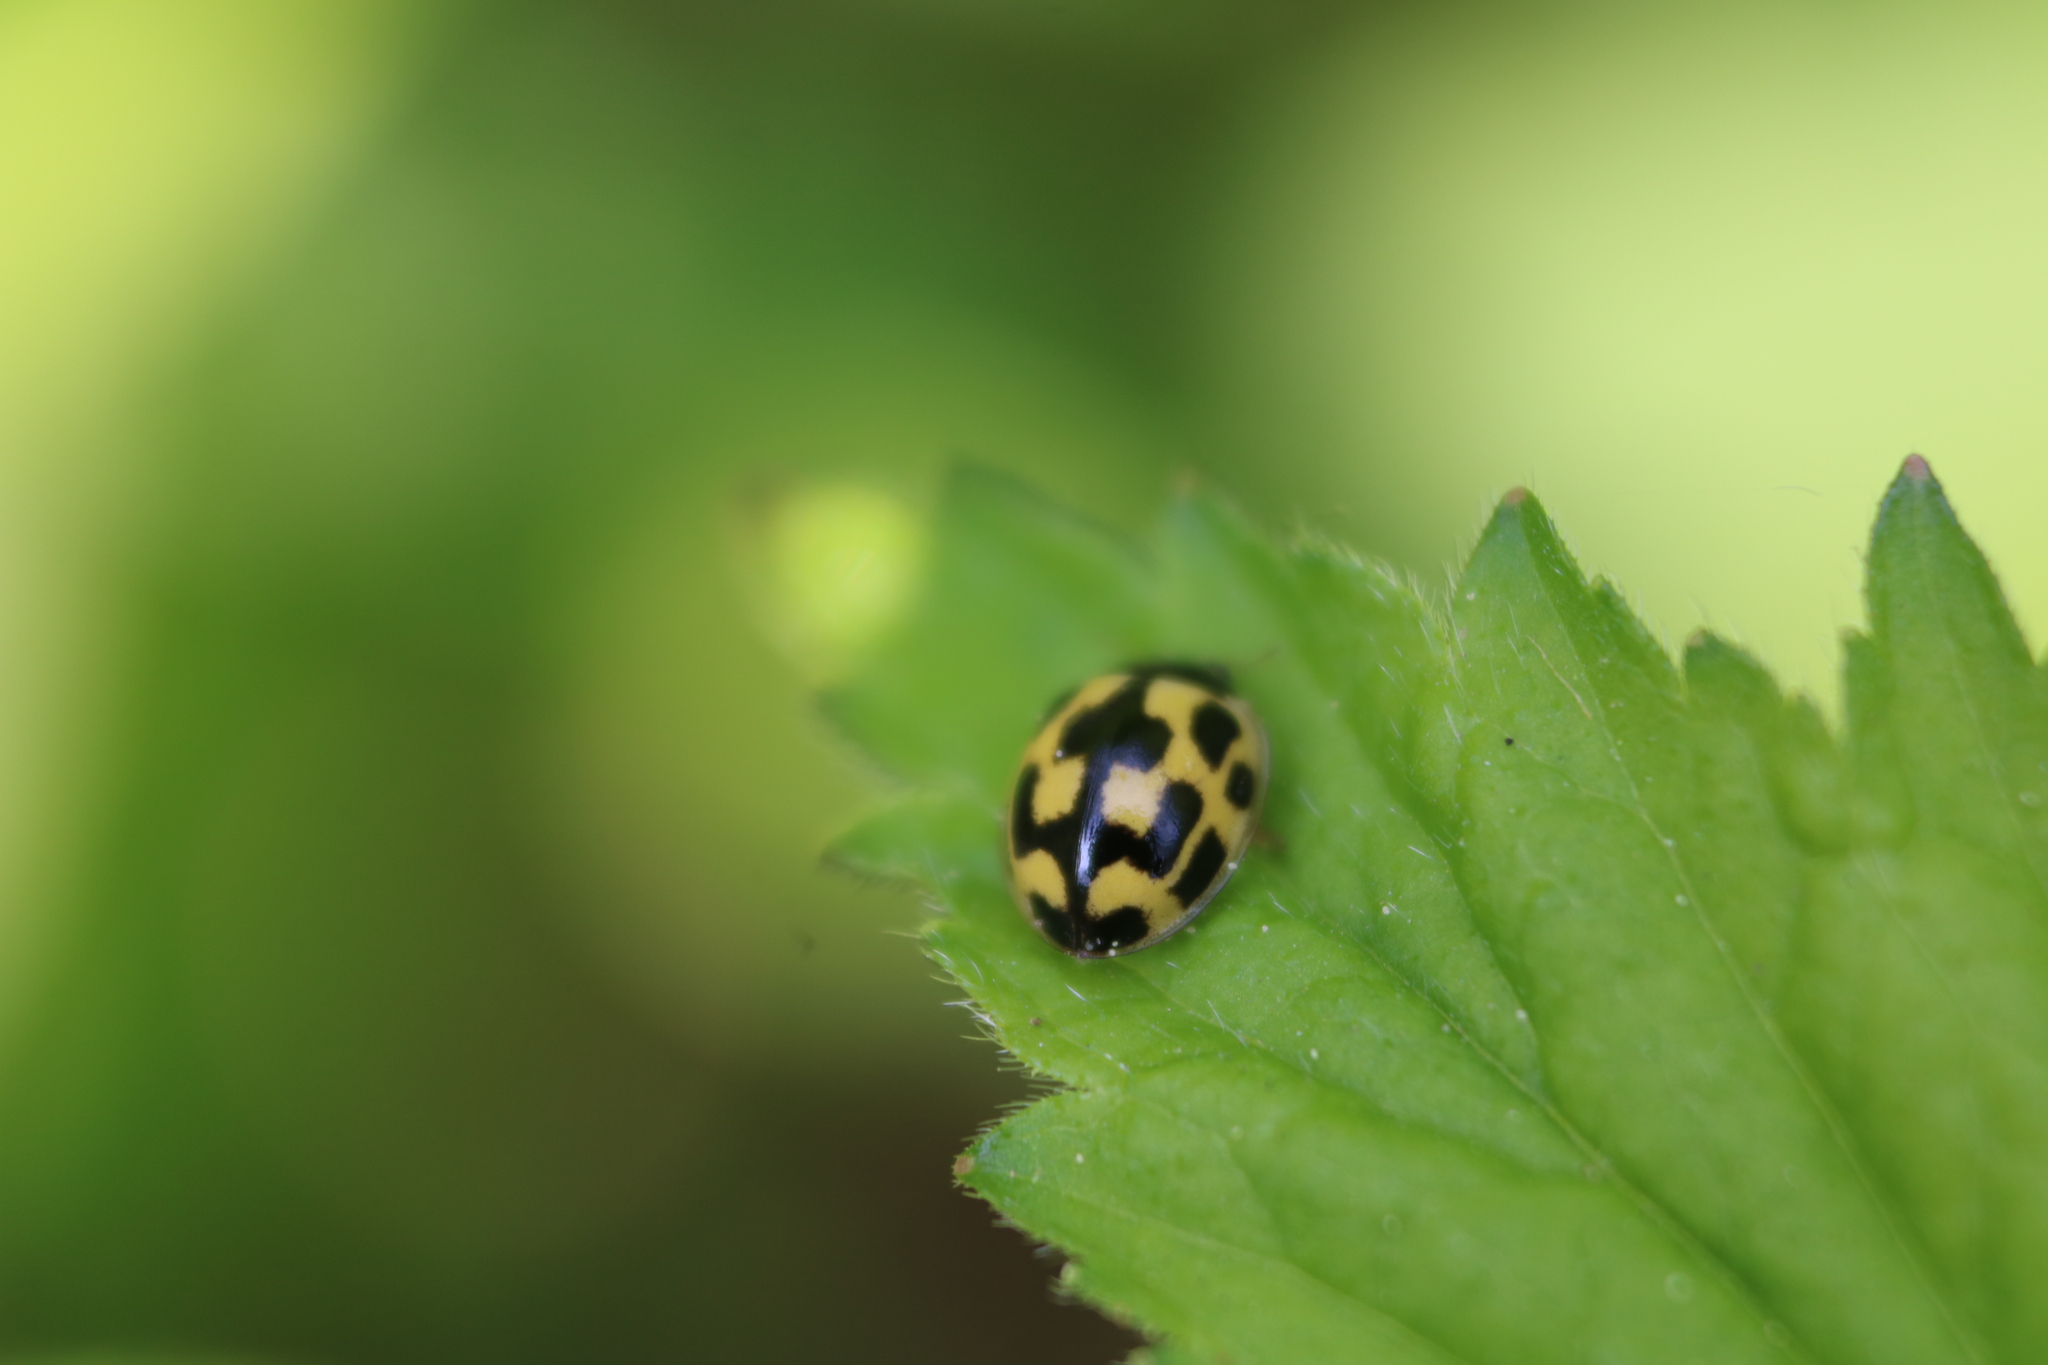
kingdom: Animalia
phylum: Arthropoda
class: Insecta
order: Coleoptera
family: Coccinellidae
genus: Propylaea
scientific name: Propylaea quatuordecimpunctata
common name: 14-spotted ladybird beetle
